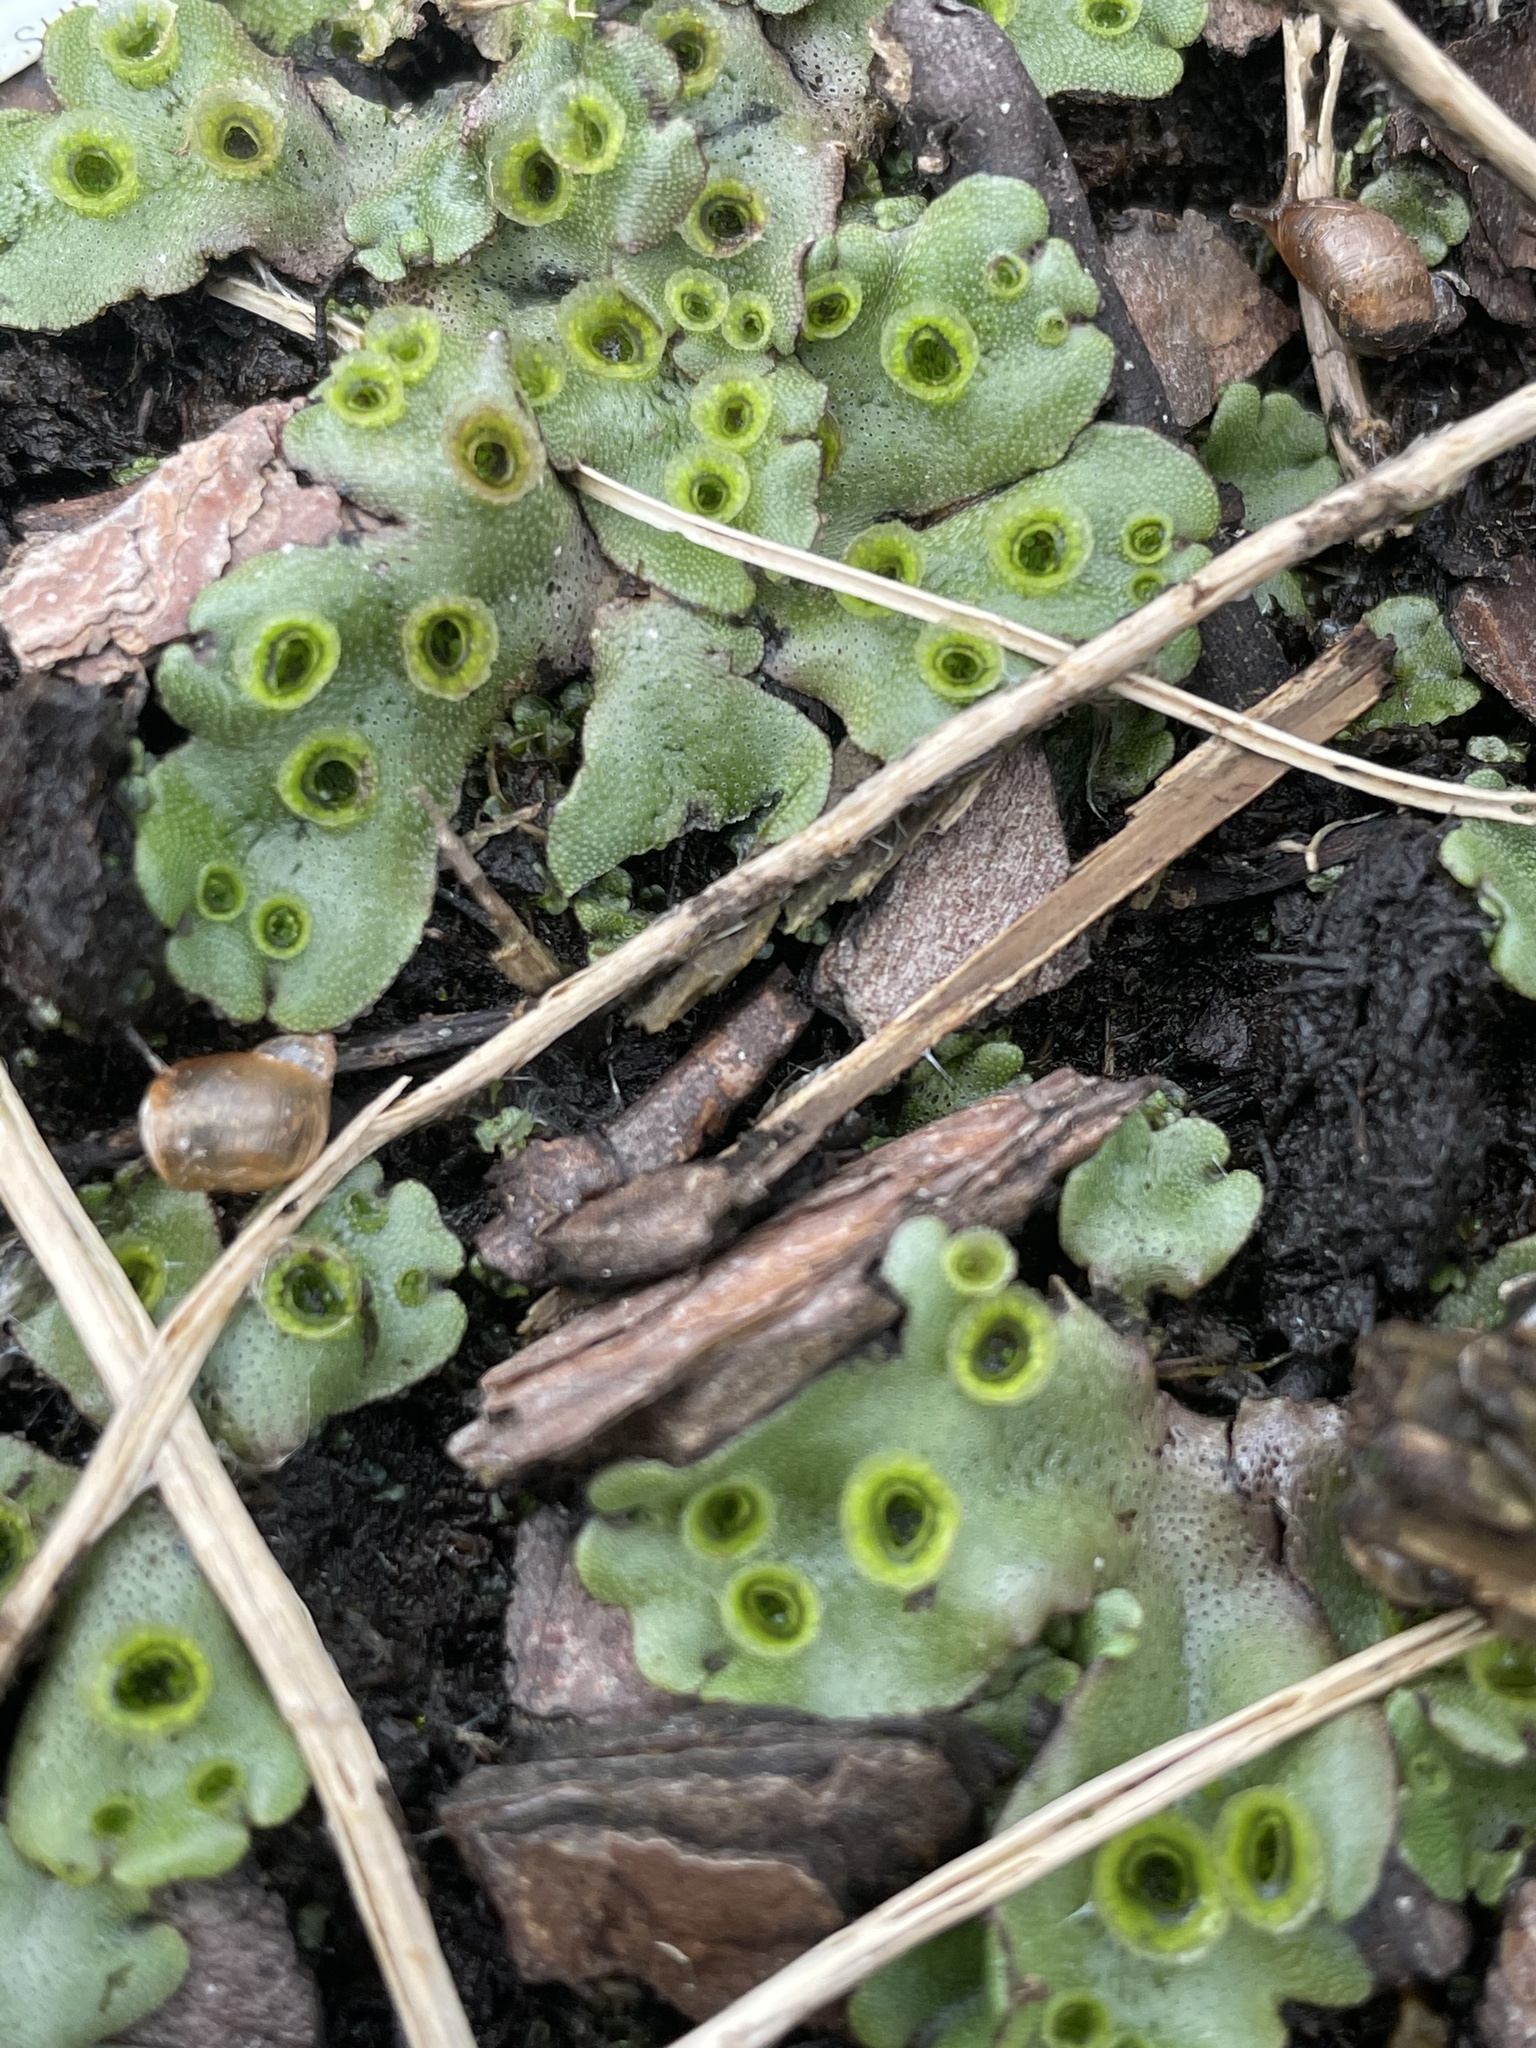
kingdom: Plantae
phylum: Marchantiophyta
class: Marchantiopsida
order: Marchantiales
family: Marchantiaceae
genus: Marchantia
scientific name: Marchantia polymorpha
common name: Common liverwort
